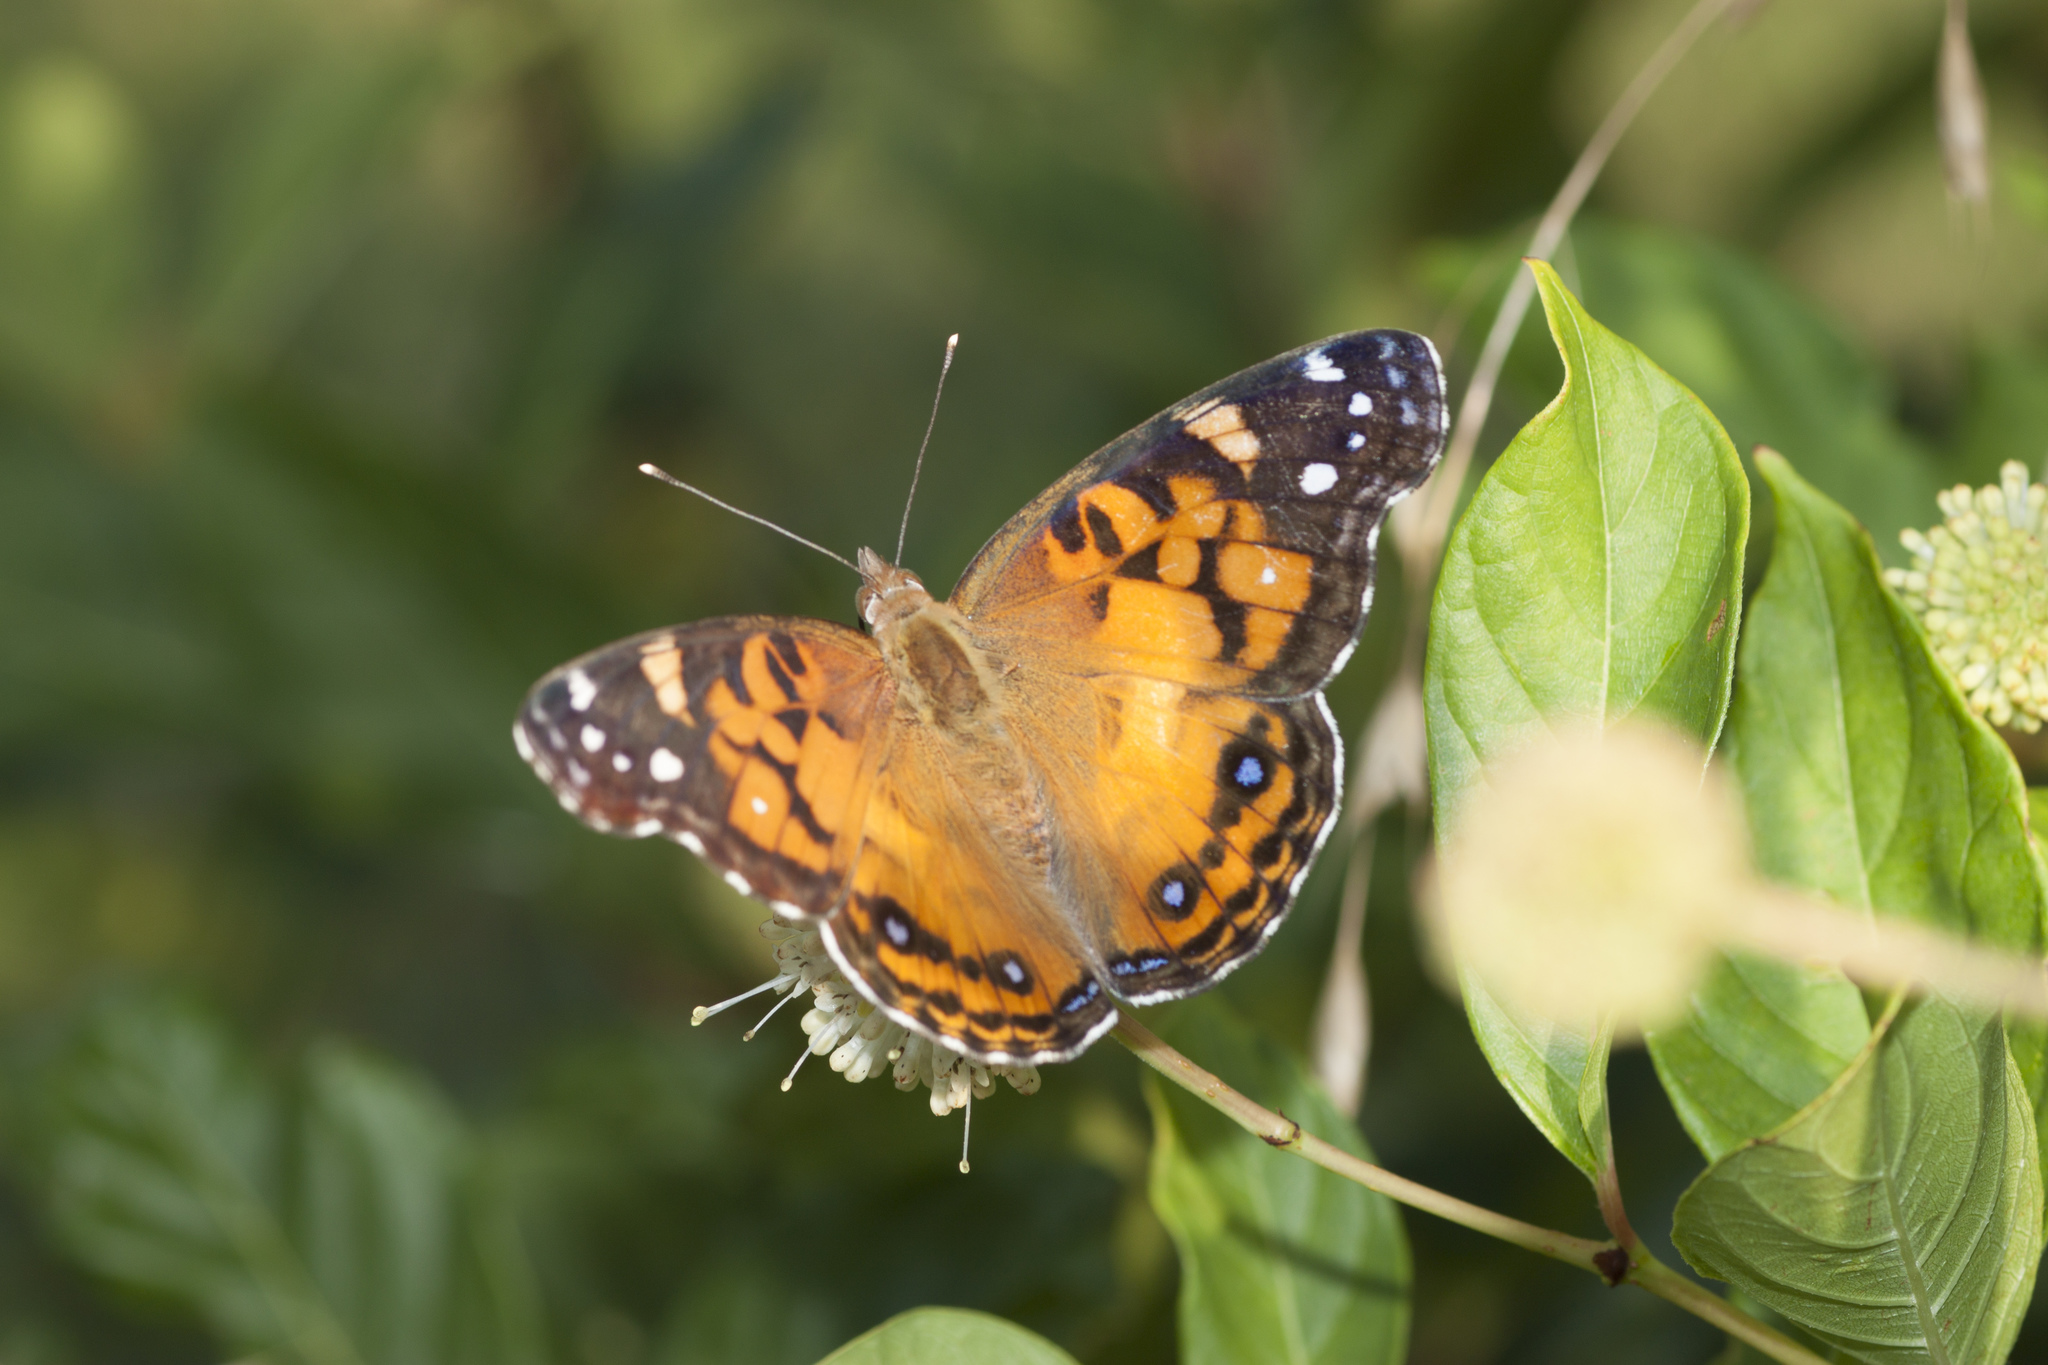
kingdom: Animalia
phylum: Arthropoda
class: Insecta
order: Lepidoptera
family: Nymphalidae
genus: Vanessa
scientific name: Vanessa virginiensis
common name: American lady
